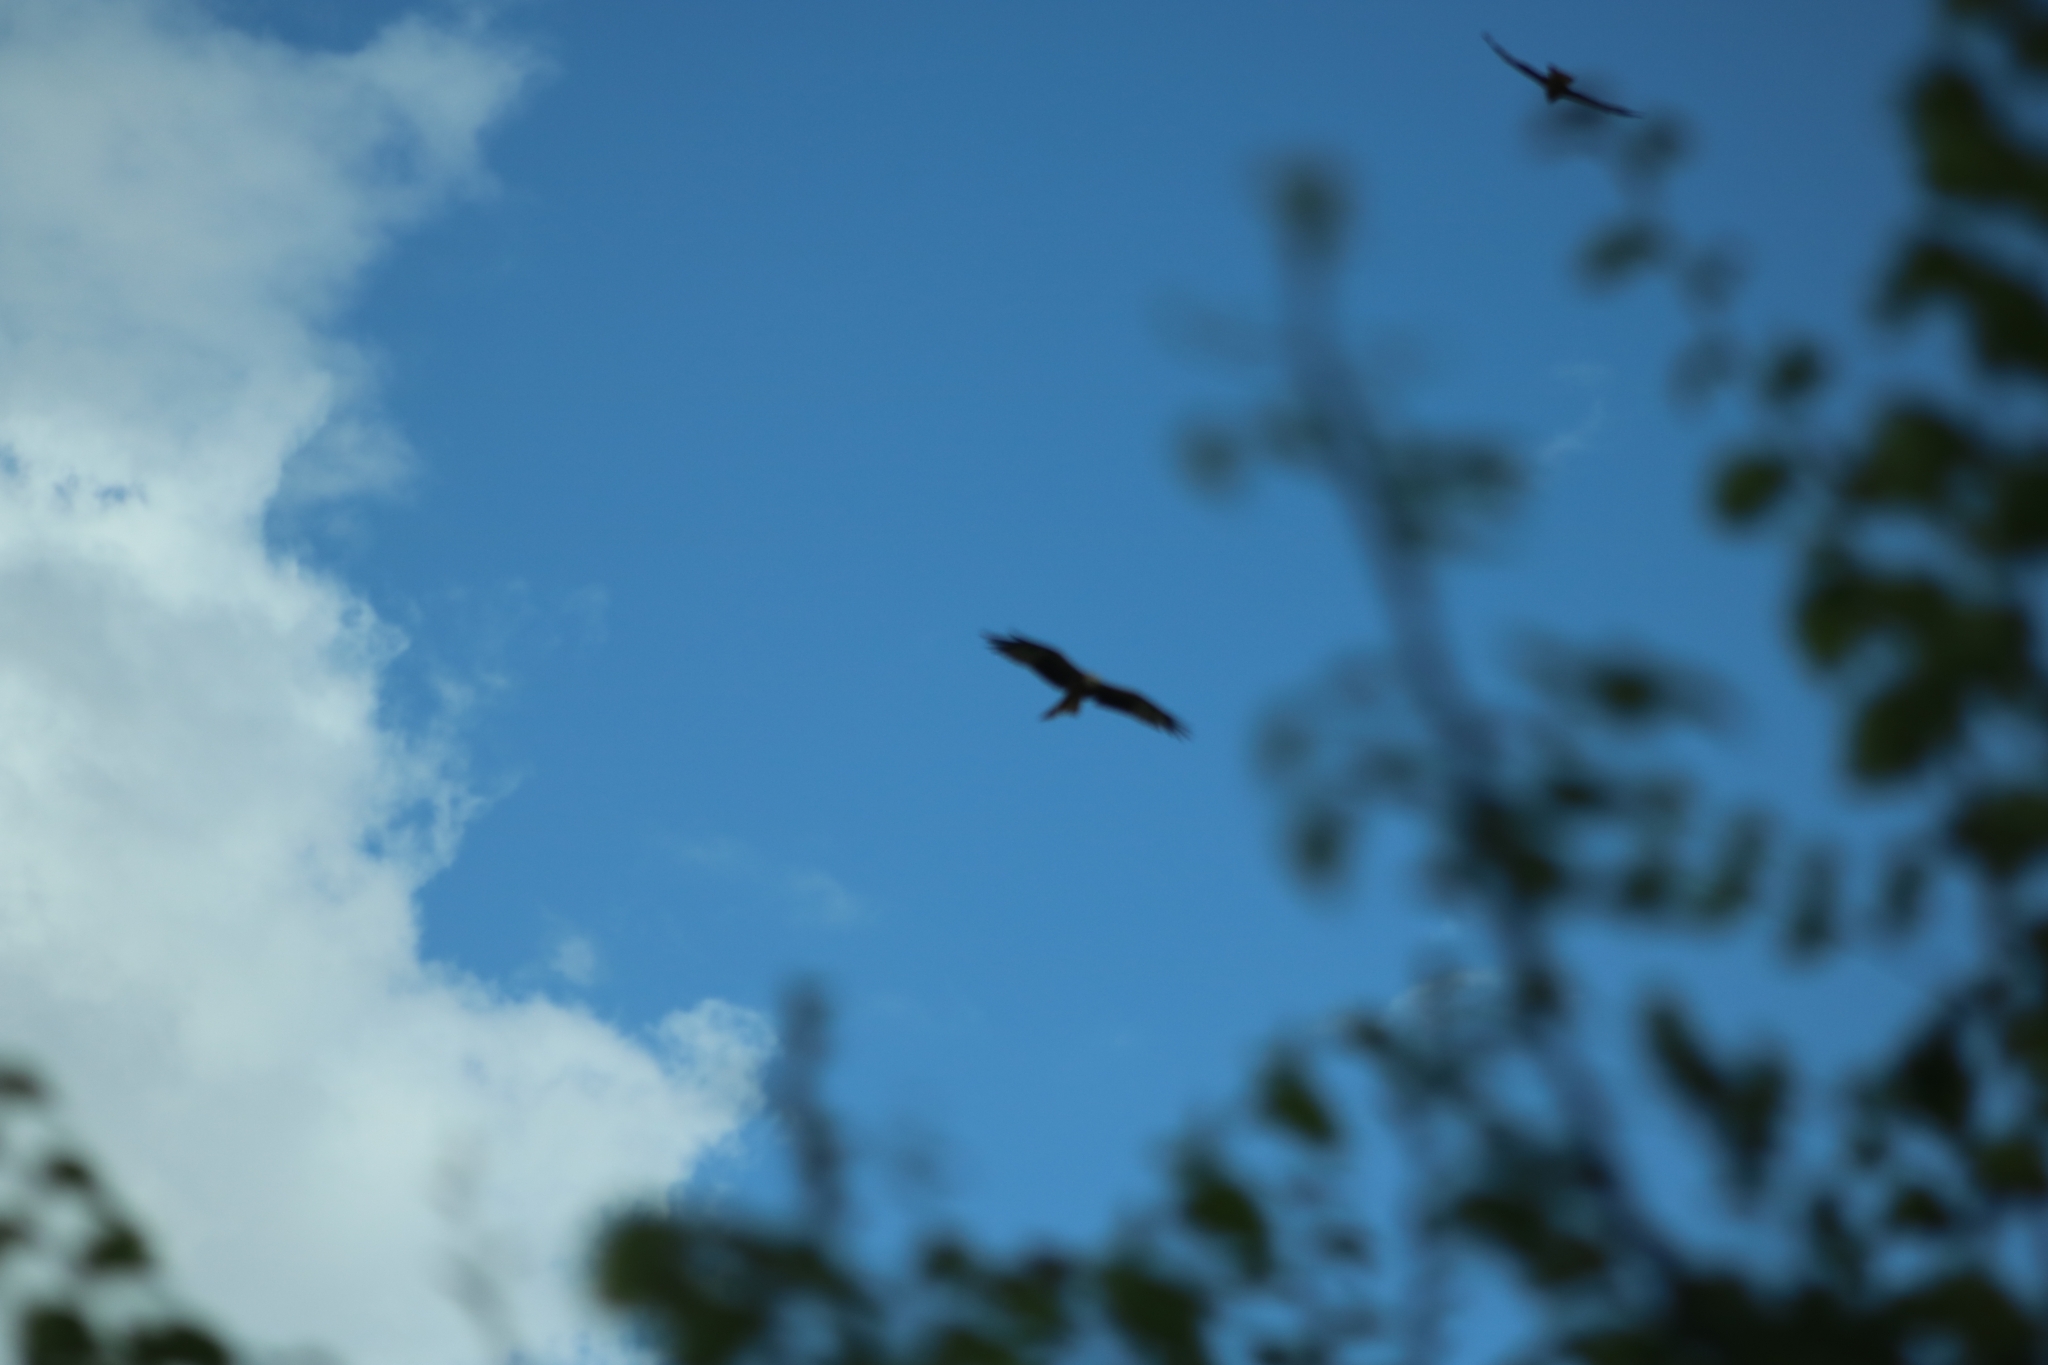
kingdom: Animalia
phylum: Chordata
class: Aves
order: Accipitriformes
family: Accipitridae
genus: Milvus
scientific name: Milvus milvus
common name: Red kite
